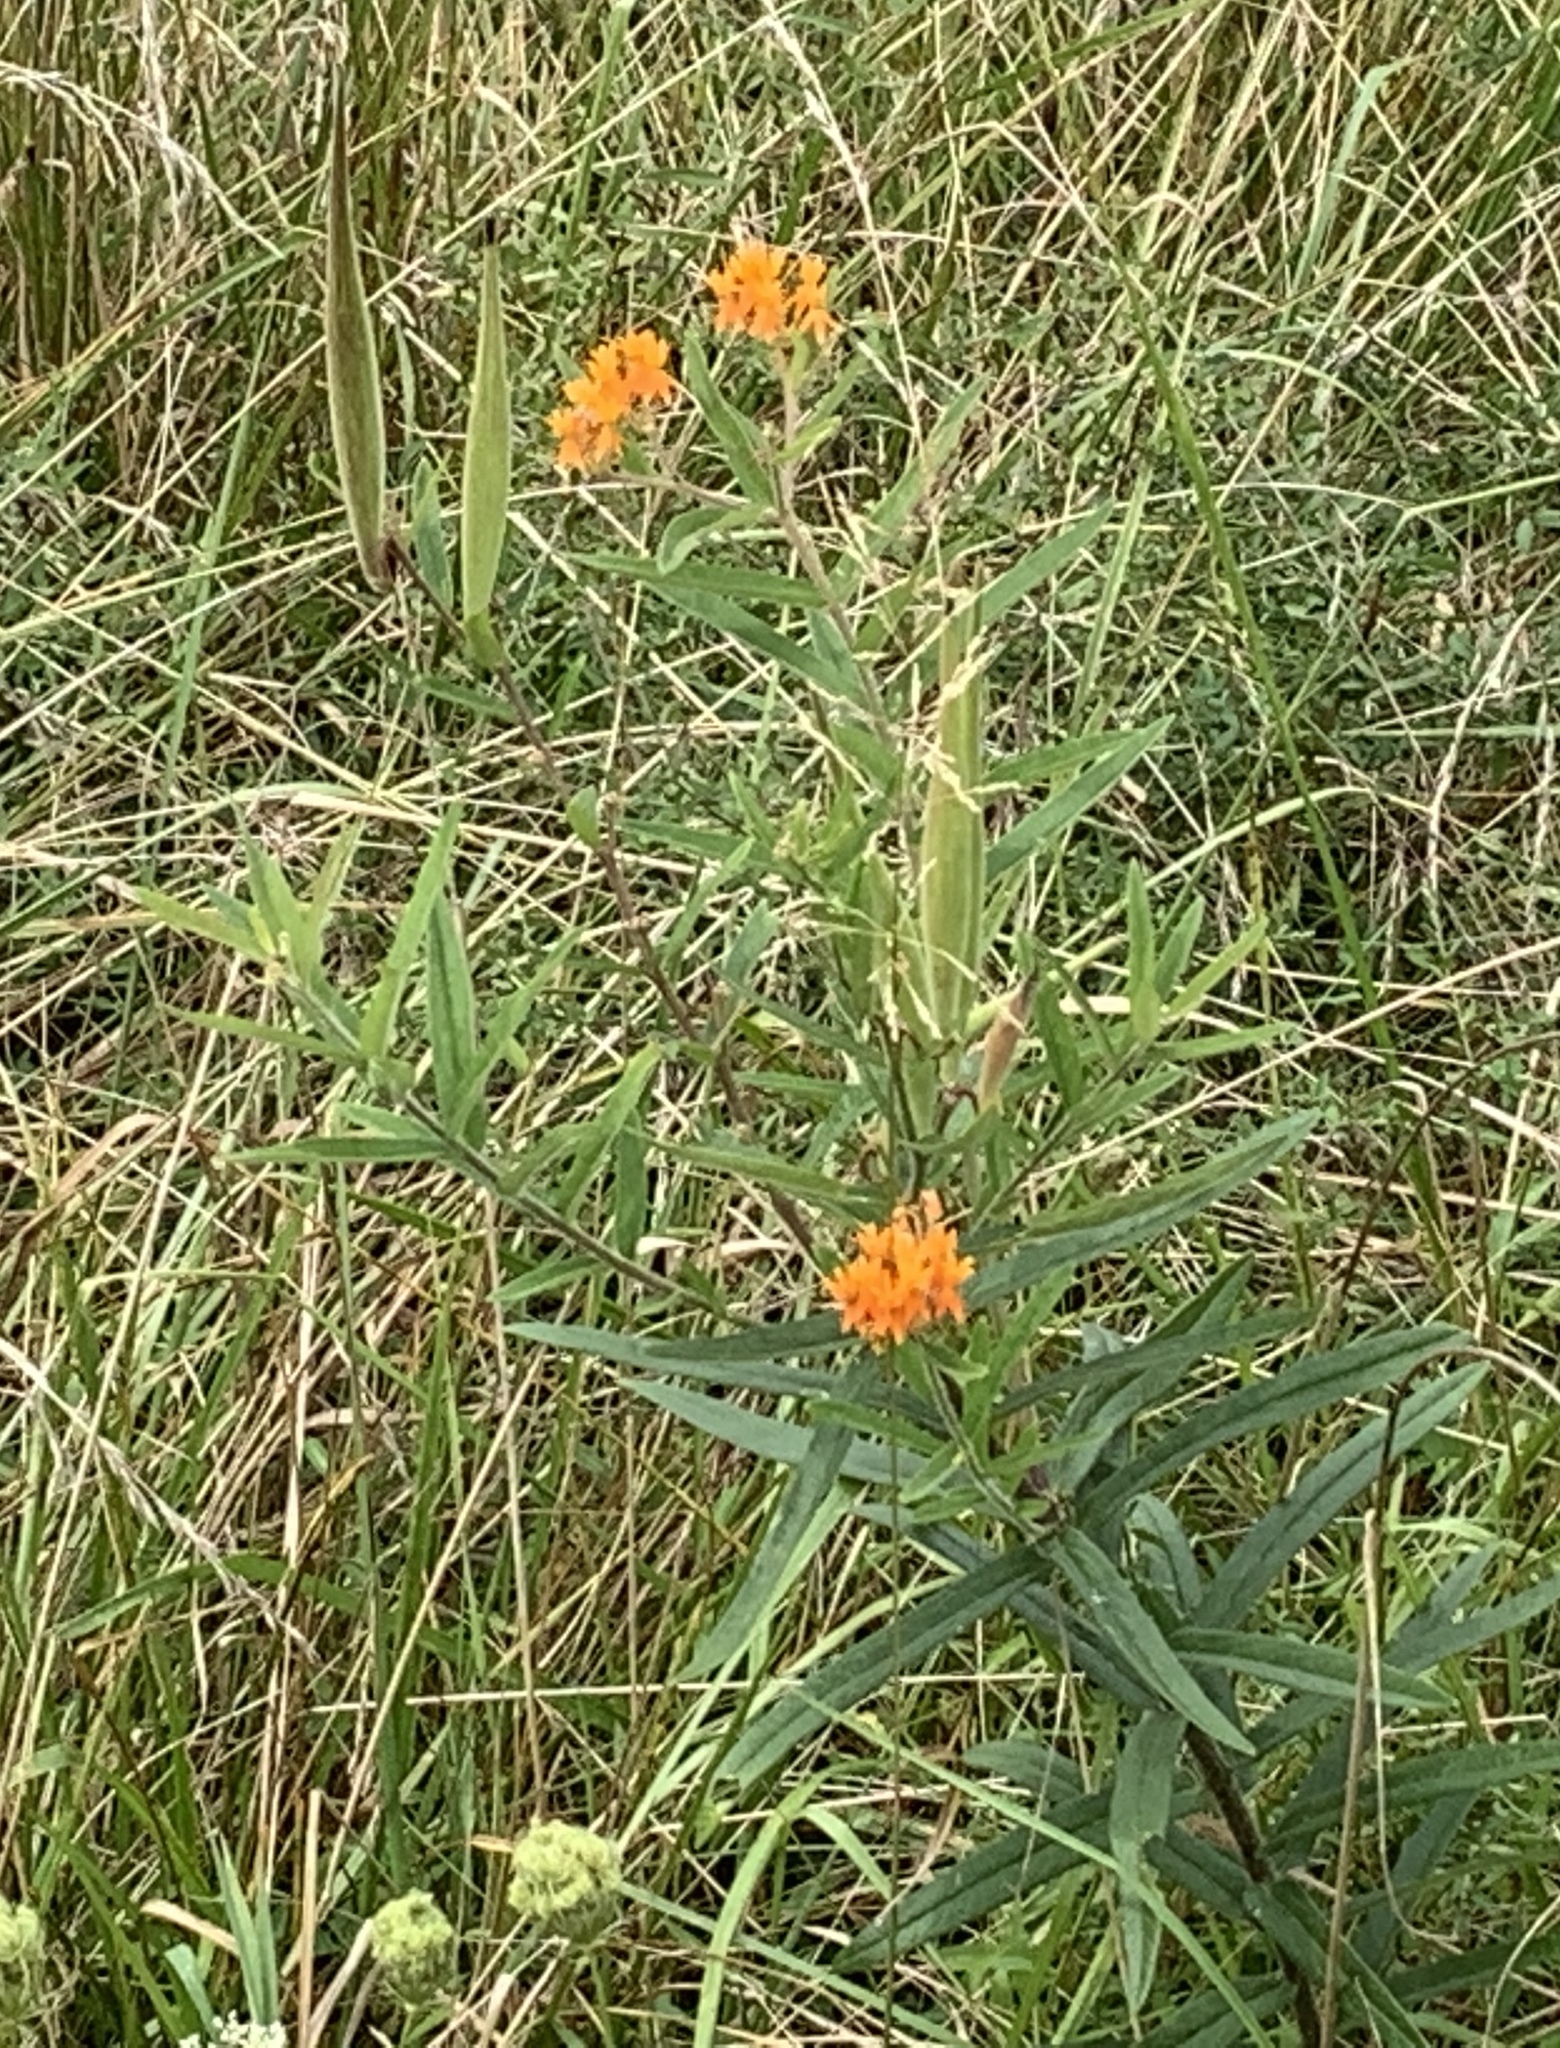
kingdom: Plantae
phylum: Tracheophyta
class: Magnoliopsida
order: Gentianales
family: Apocynaceae
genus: Asclepias
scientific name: Asclepias tuberosa
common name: Butterfly milkweed
